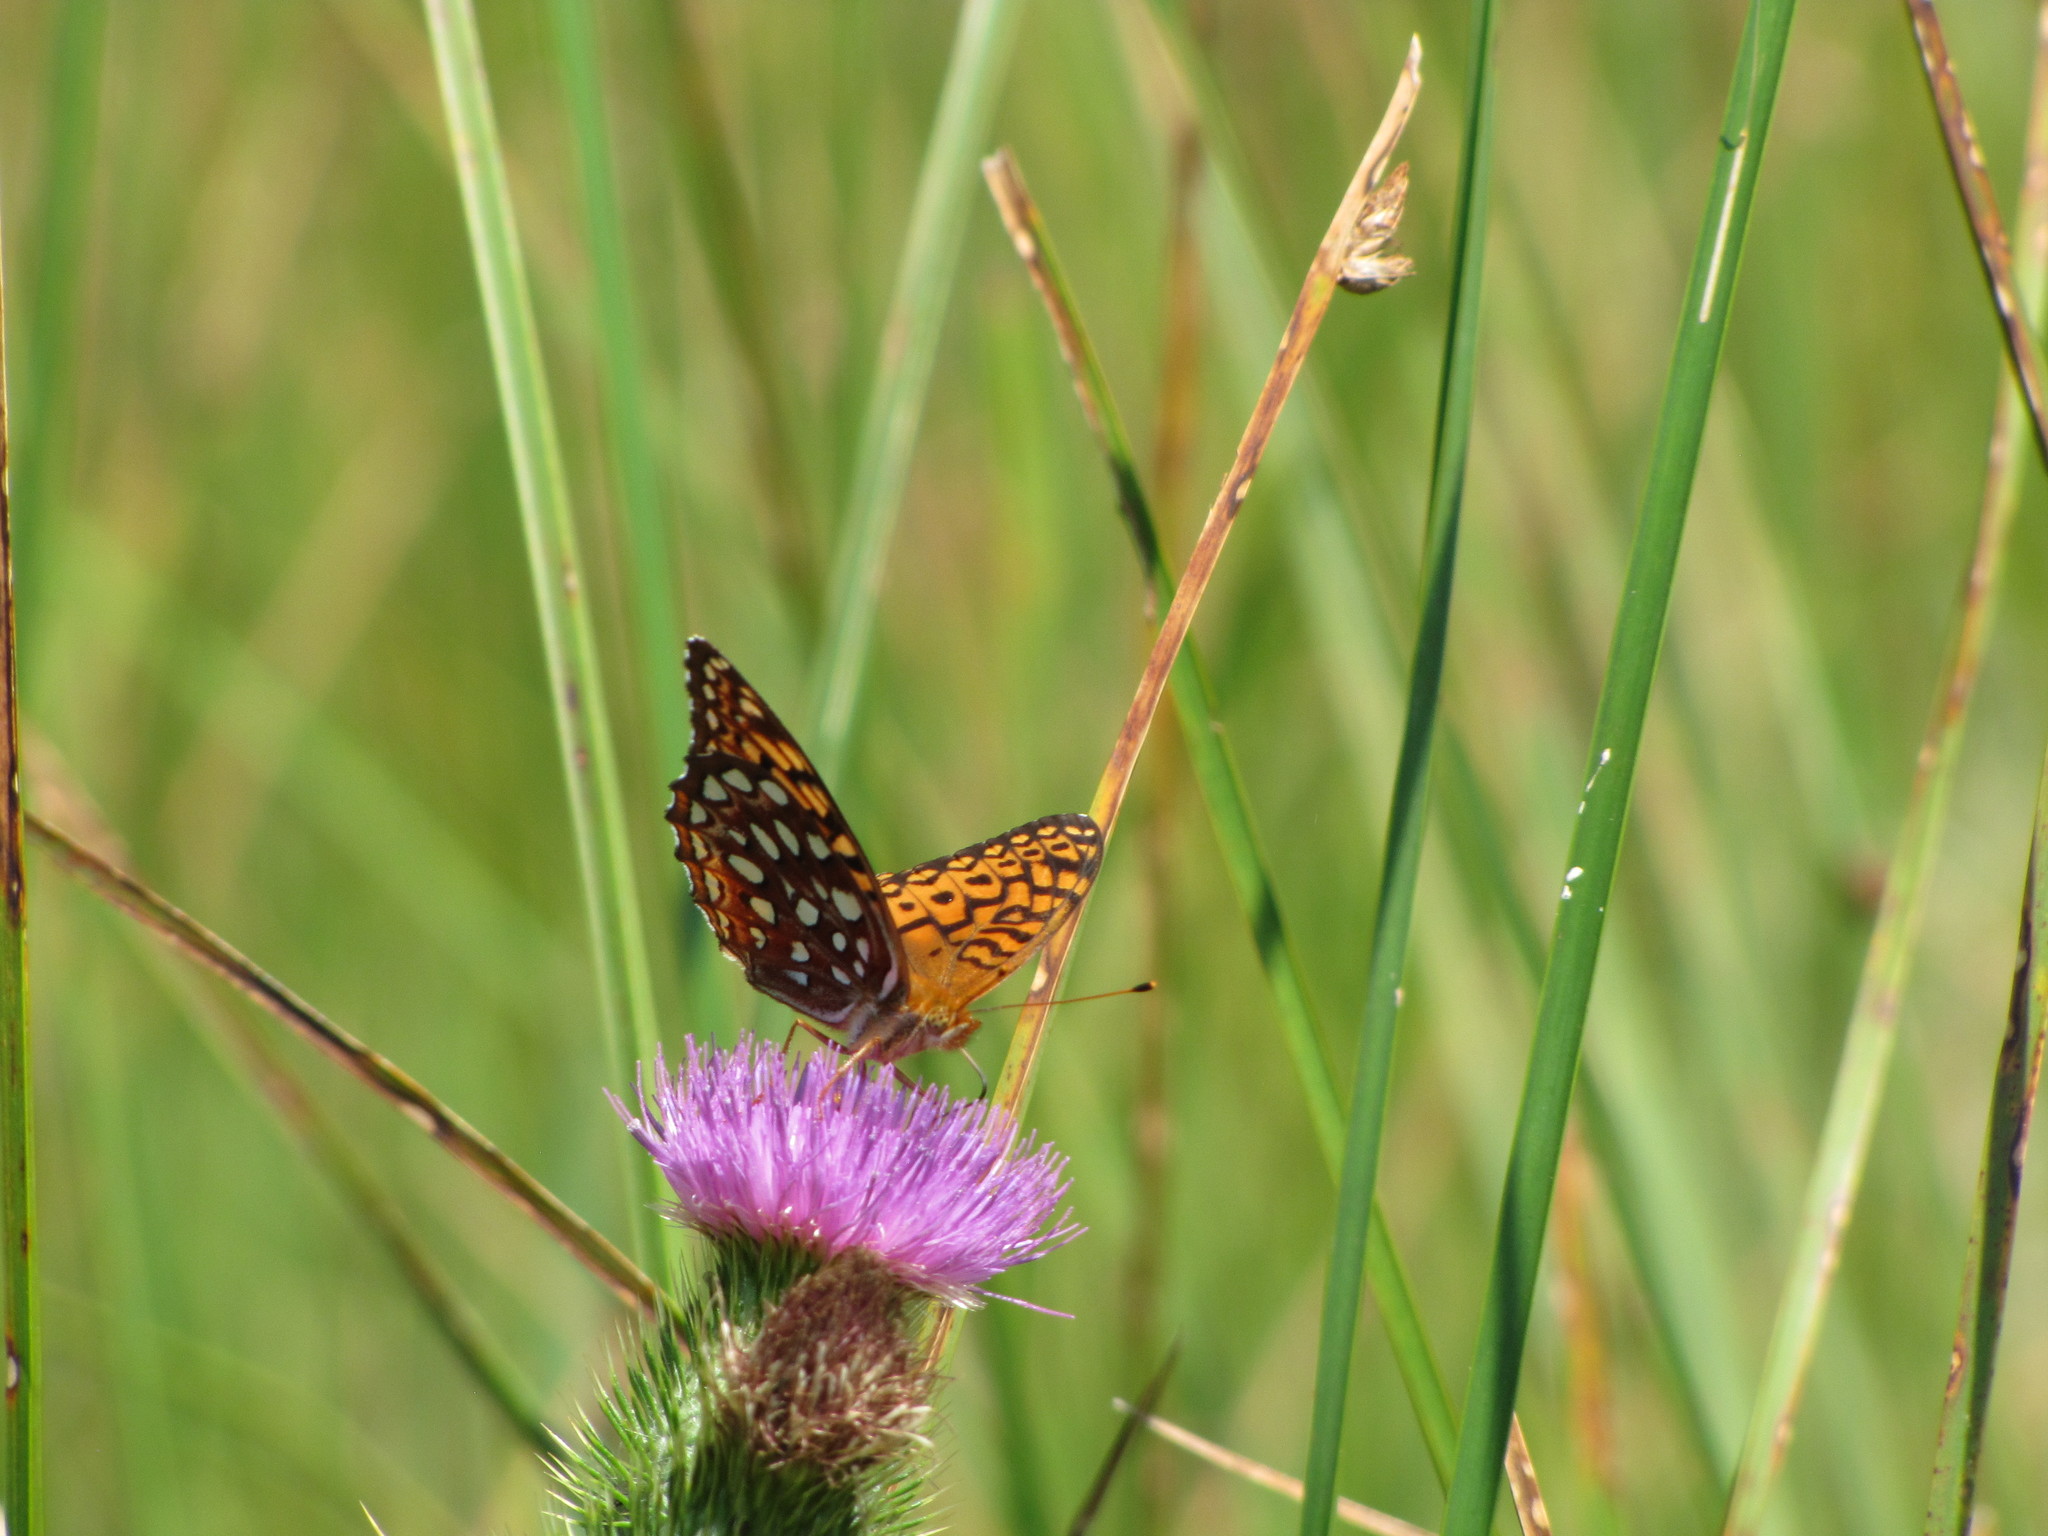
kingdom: Animalia
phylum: Arthropoda
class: Insecta
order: Lepidoptera
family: Nymphalidae
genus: Speyeria
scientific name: Speyeria aphrodite
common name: Aphrodite friitllary
